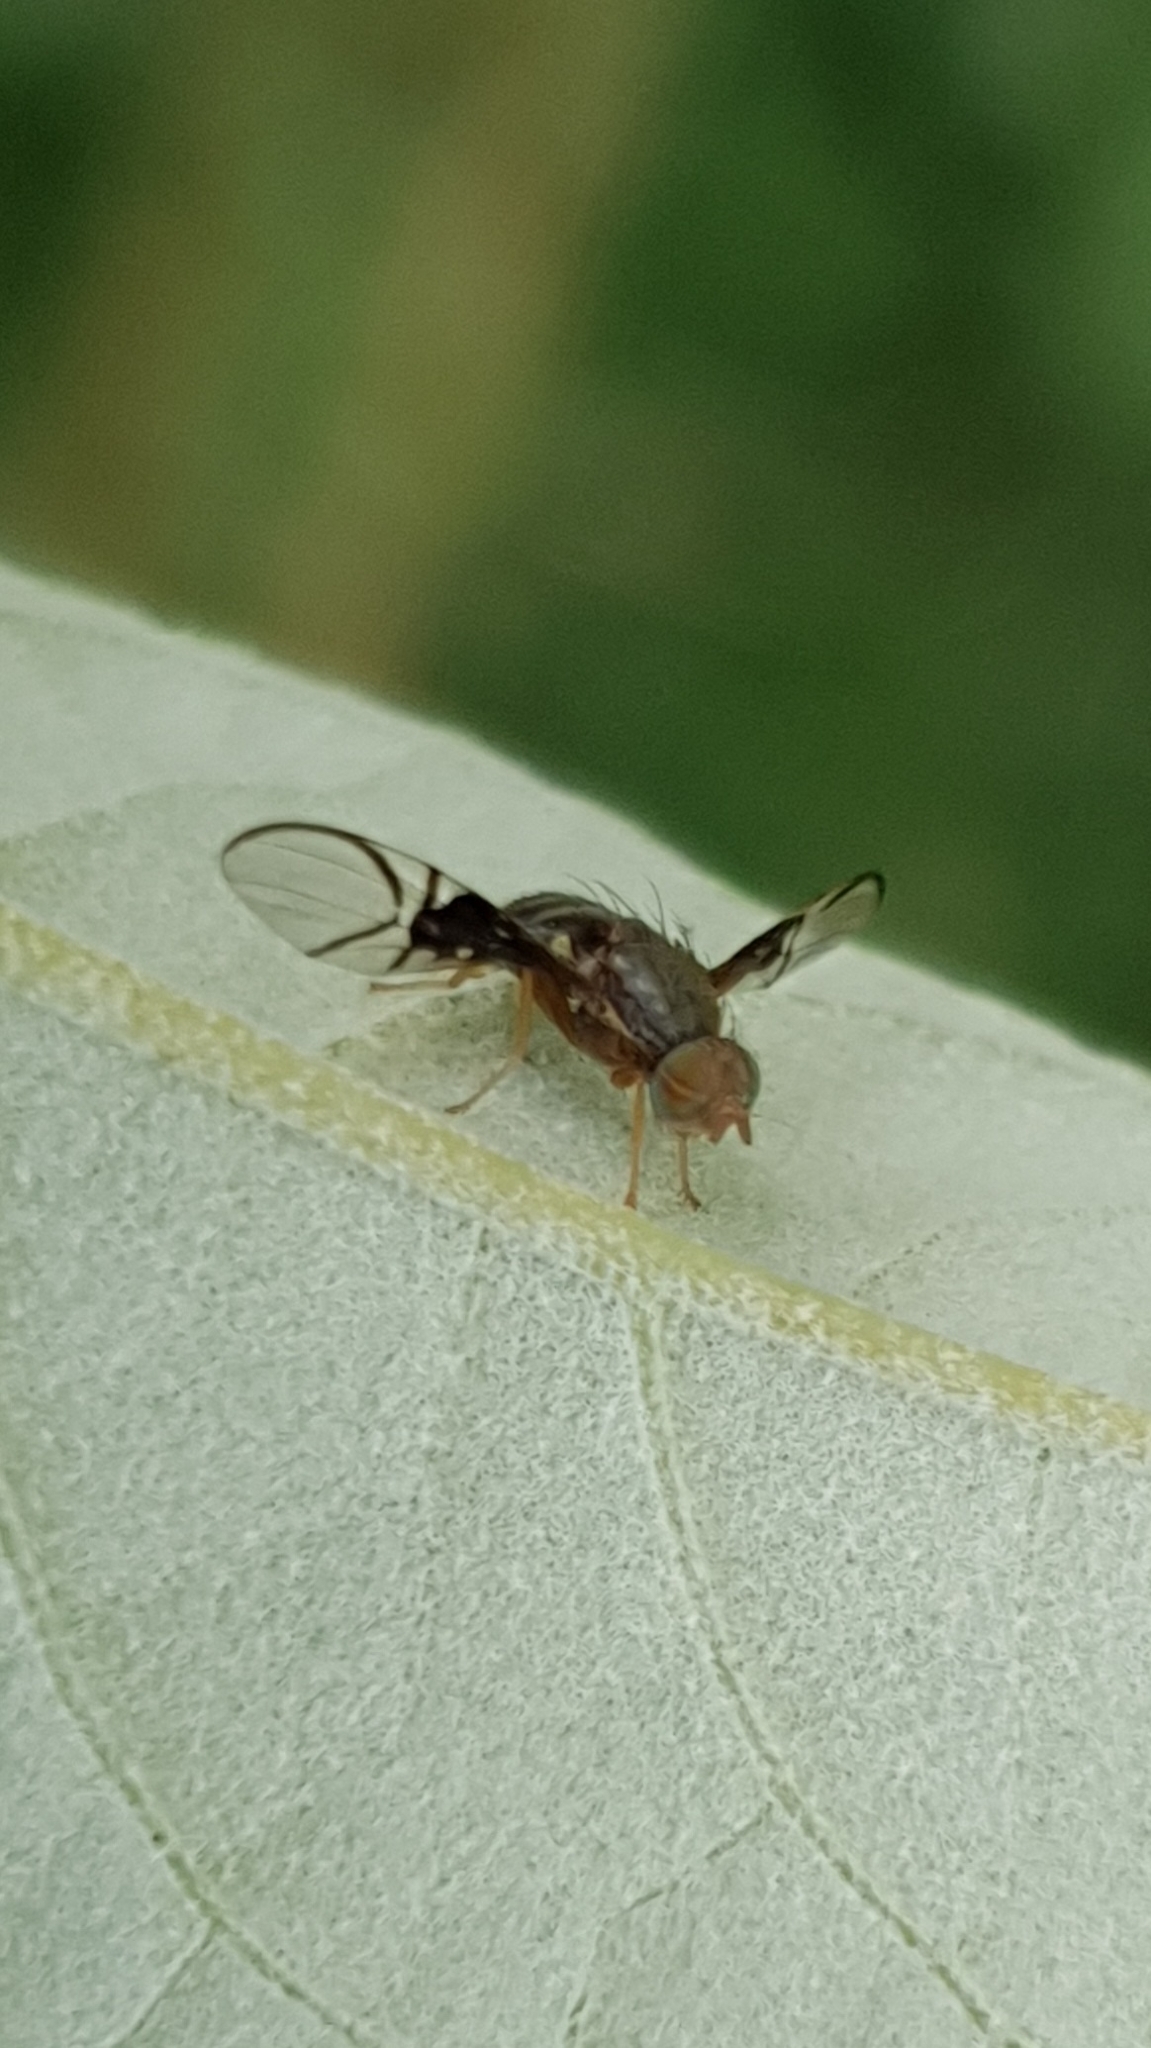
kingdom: Animalia
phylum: Arthropoda
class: Insecta
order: Diptera
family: Tephritidae
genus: Anomoia
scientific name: Anomoia purmunda
